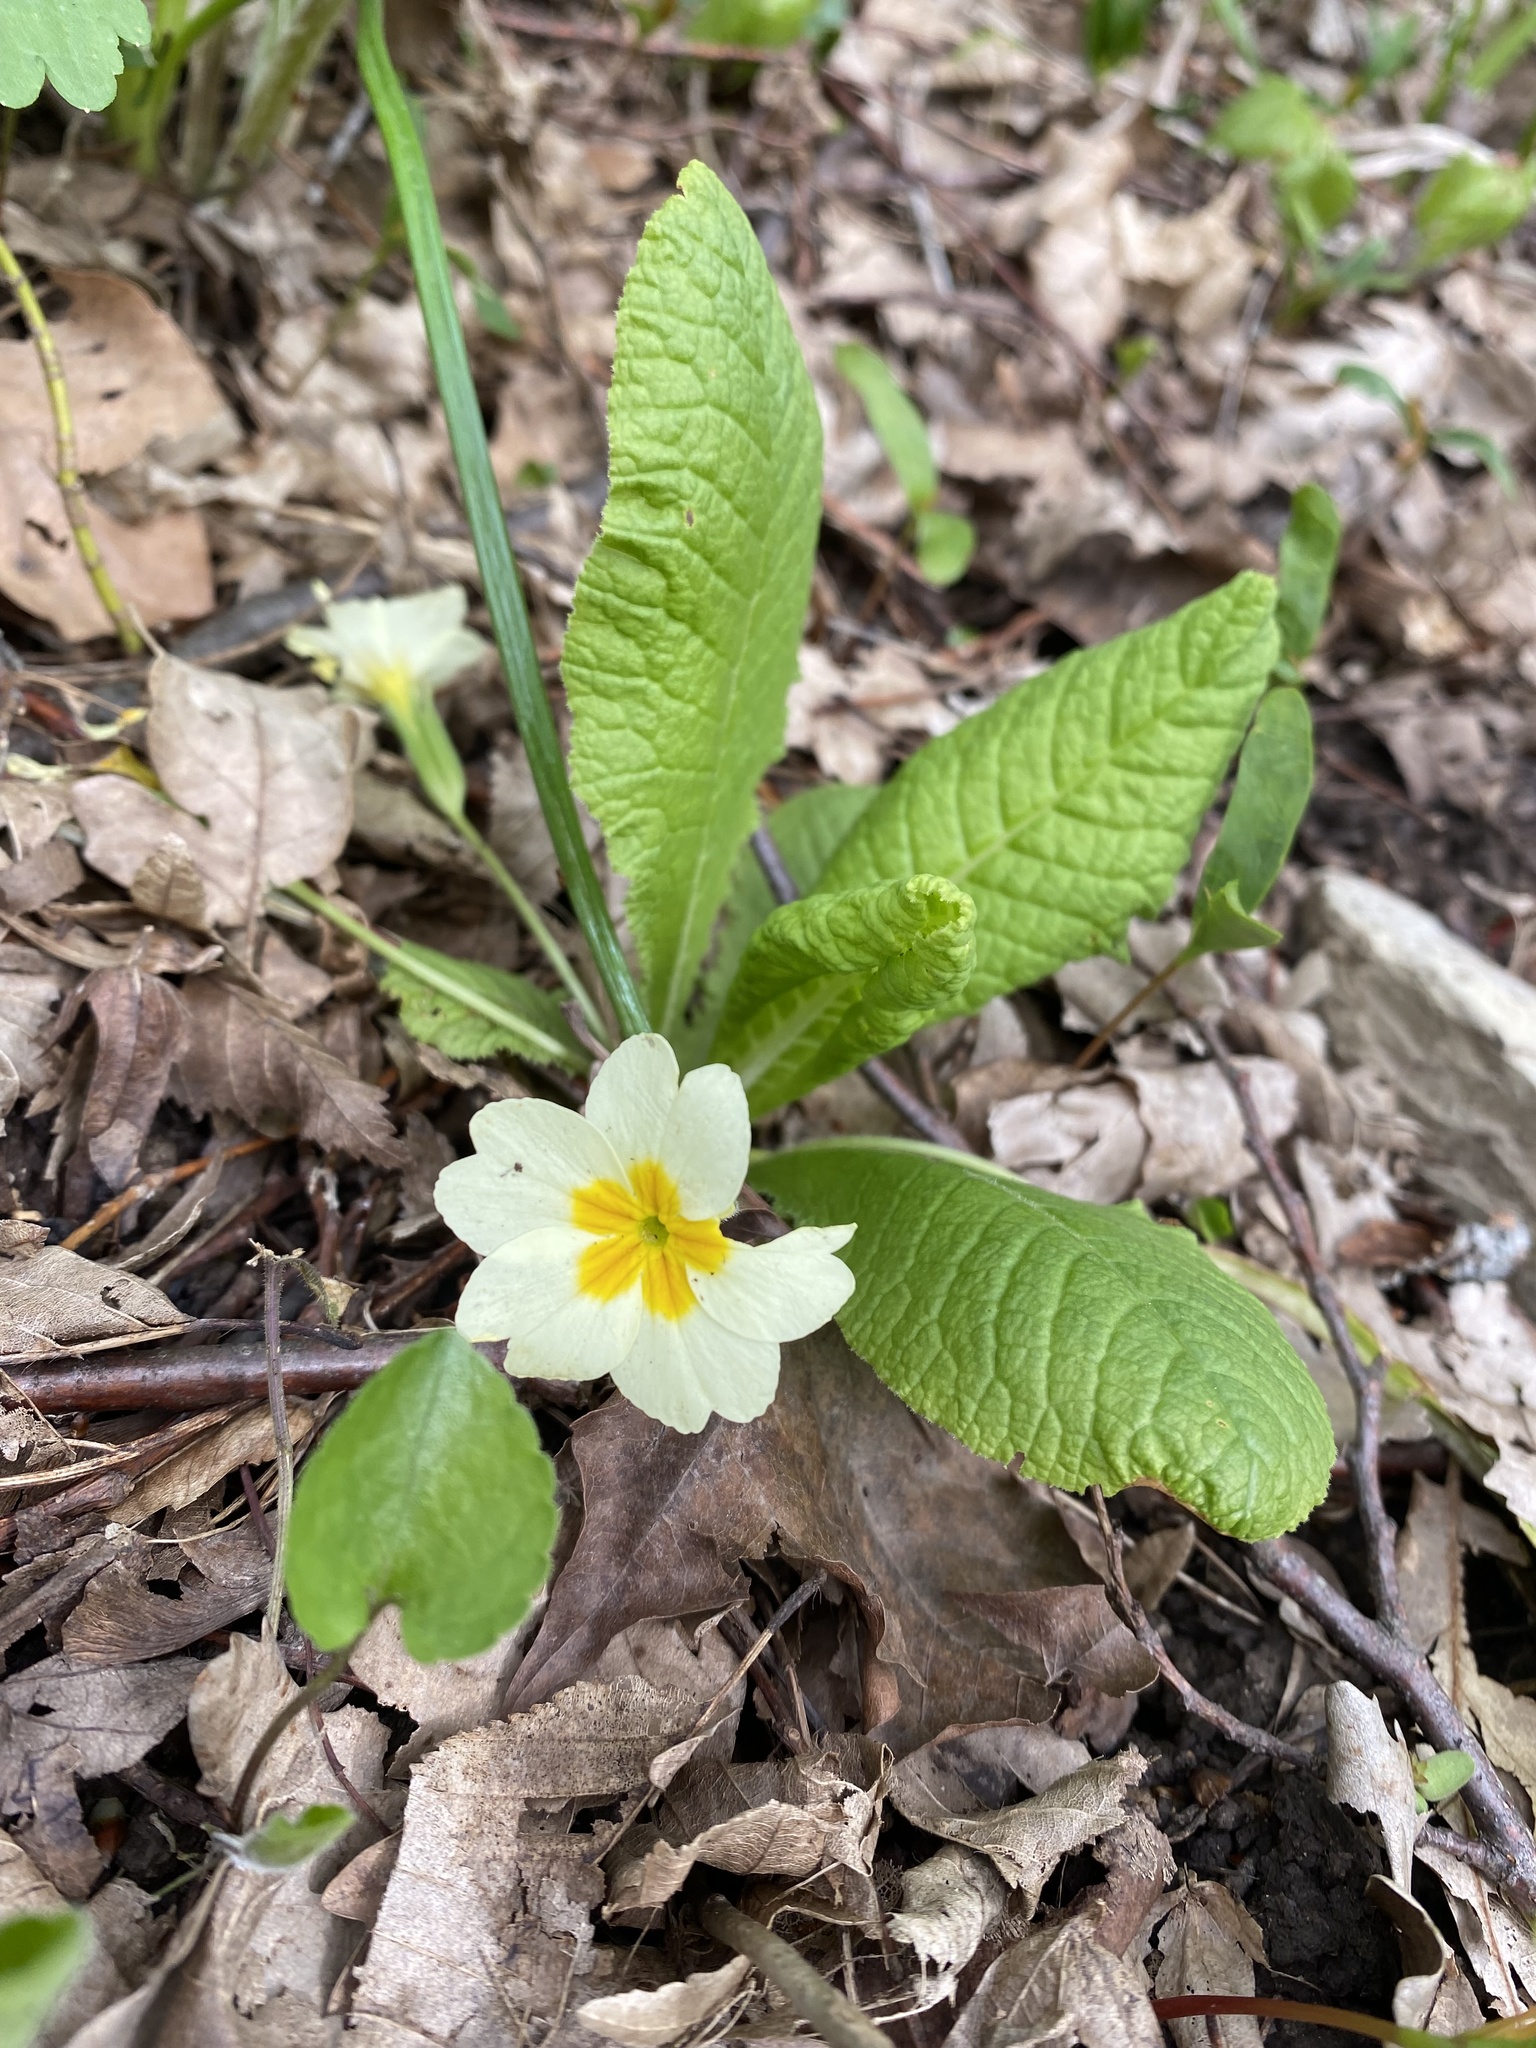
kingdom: Plantae
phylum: Tracheophyta
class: Magnoliopsida
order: Ericales
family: Primulaceae
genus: Primula
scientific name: Primula vulgaris
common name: Primrose
